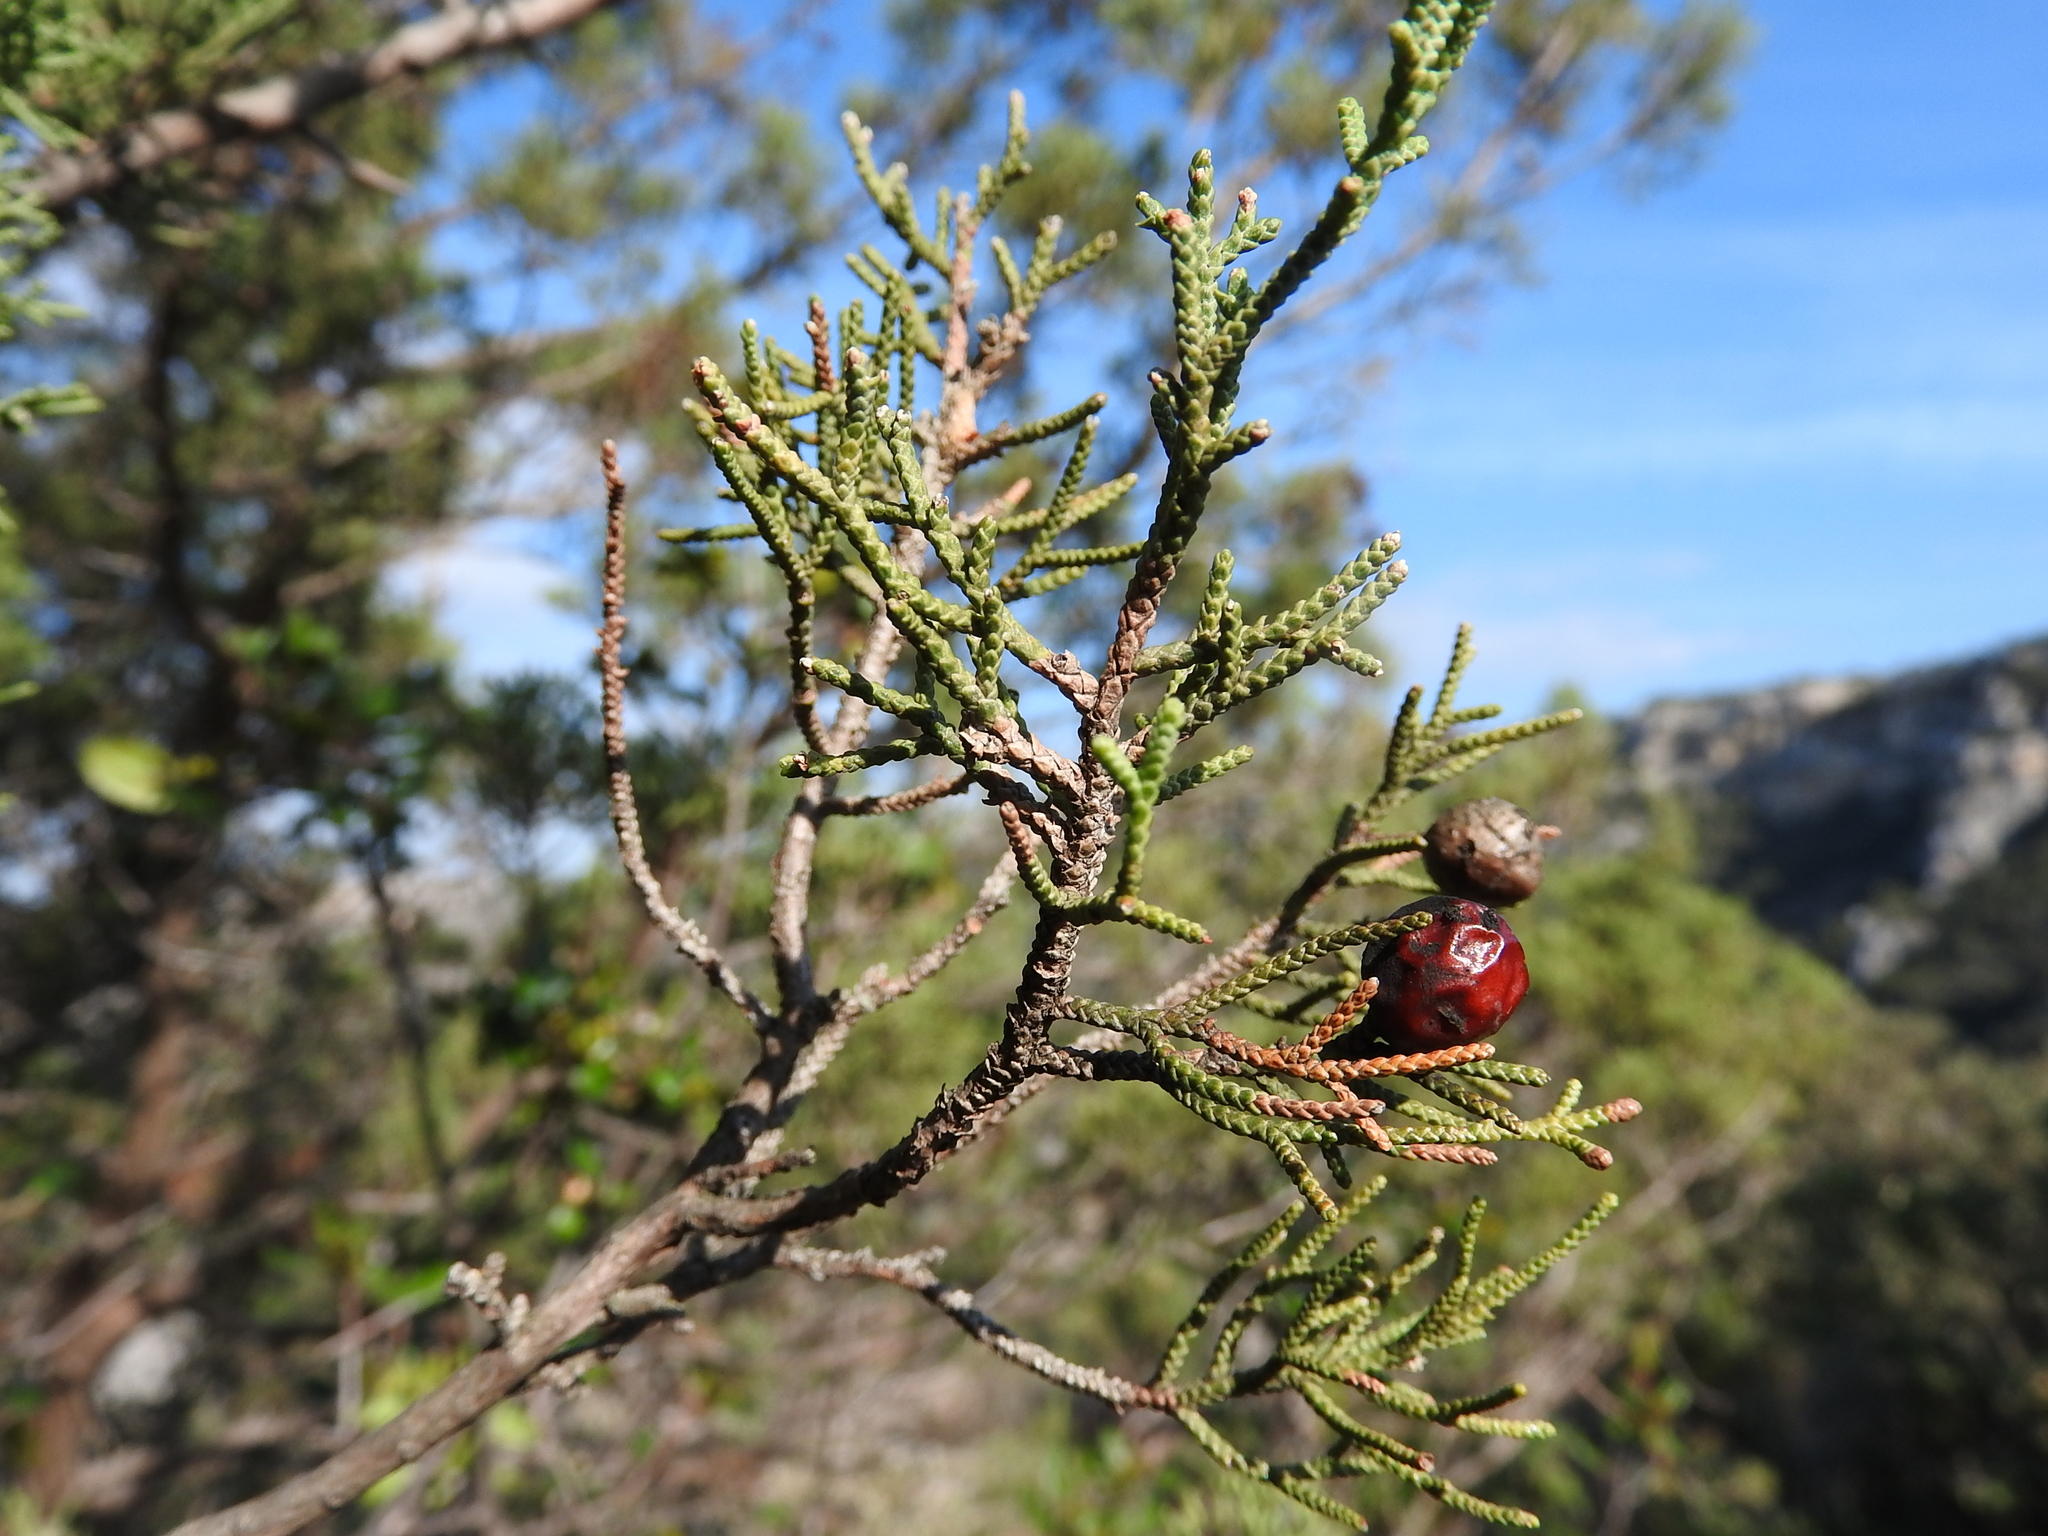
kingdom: Plantae
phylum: Tracheophyta
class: Pinopsida
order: Pinales
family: Cupressaceae
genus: Juniperus
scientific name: Juniperus phoenicea
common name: Phoenician juniper
